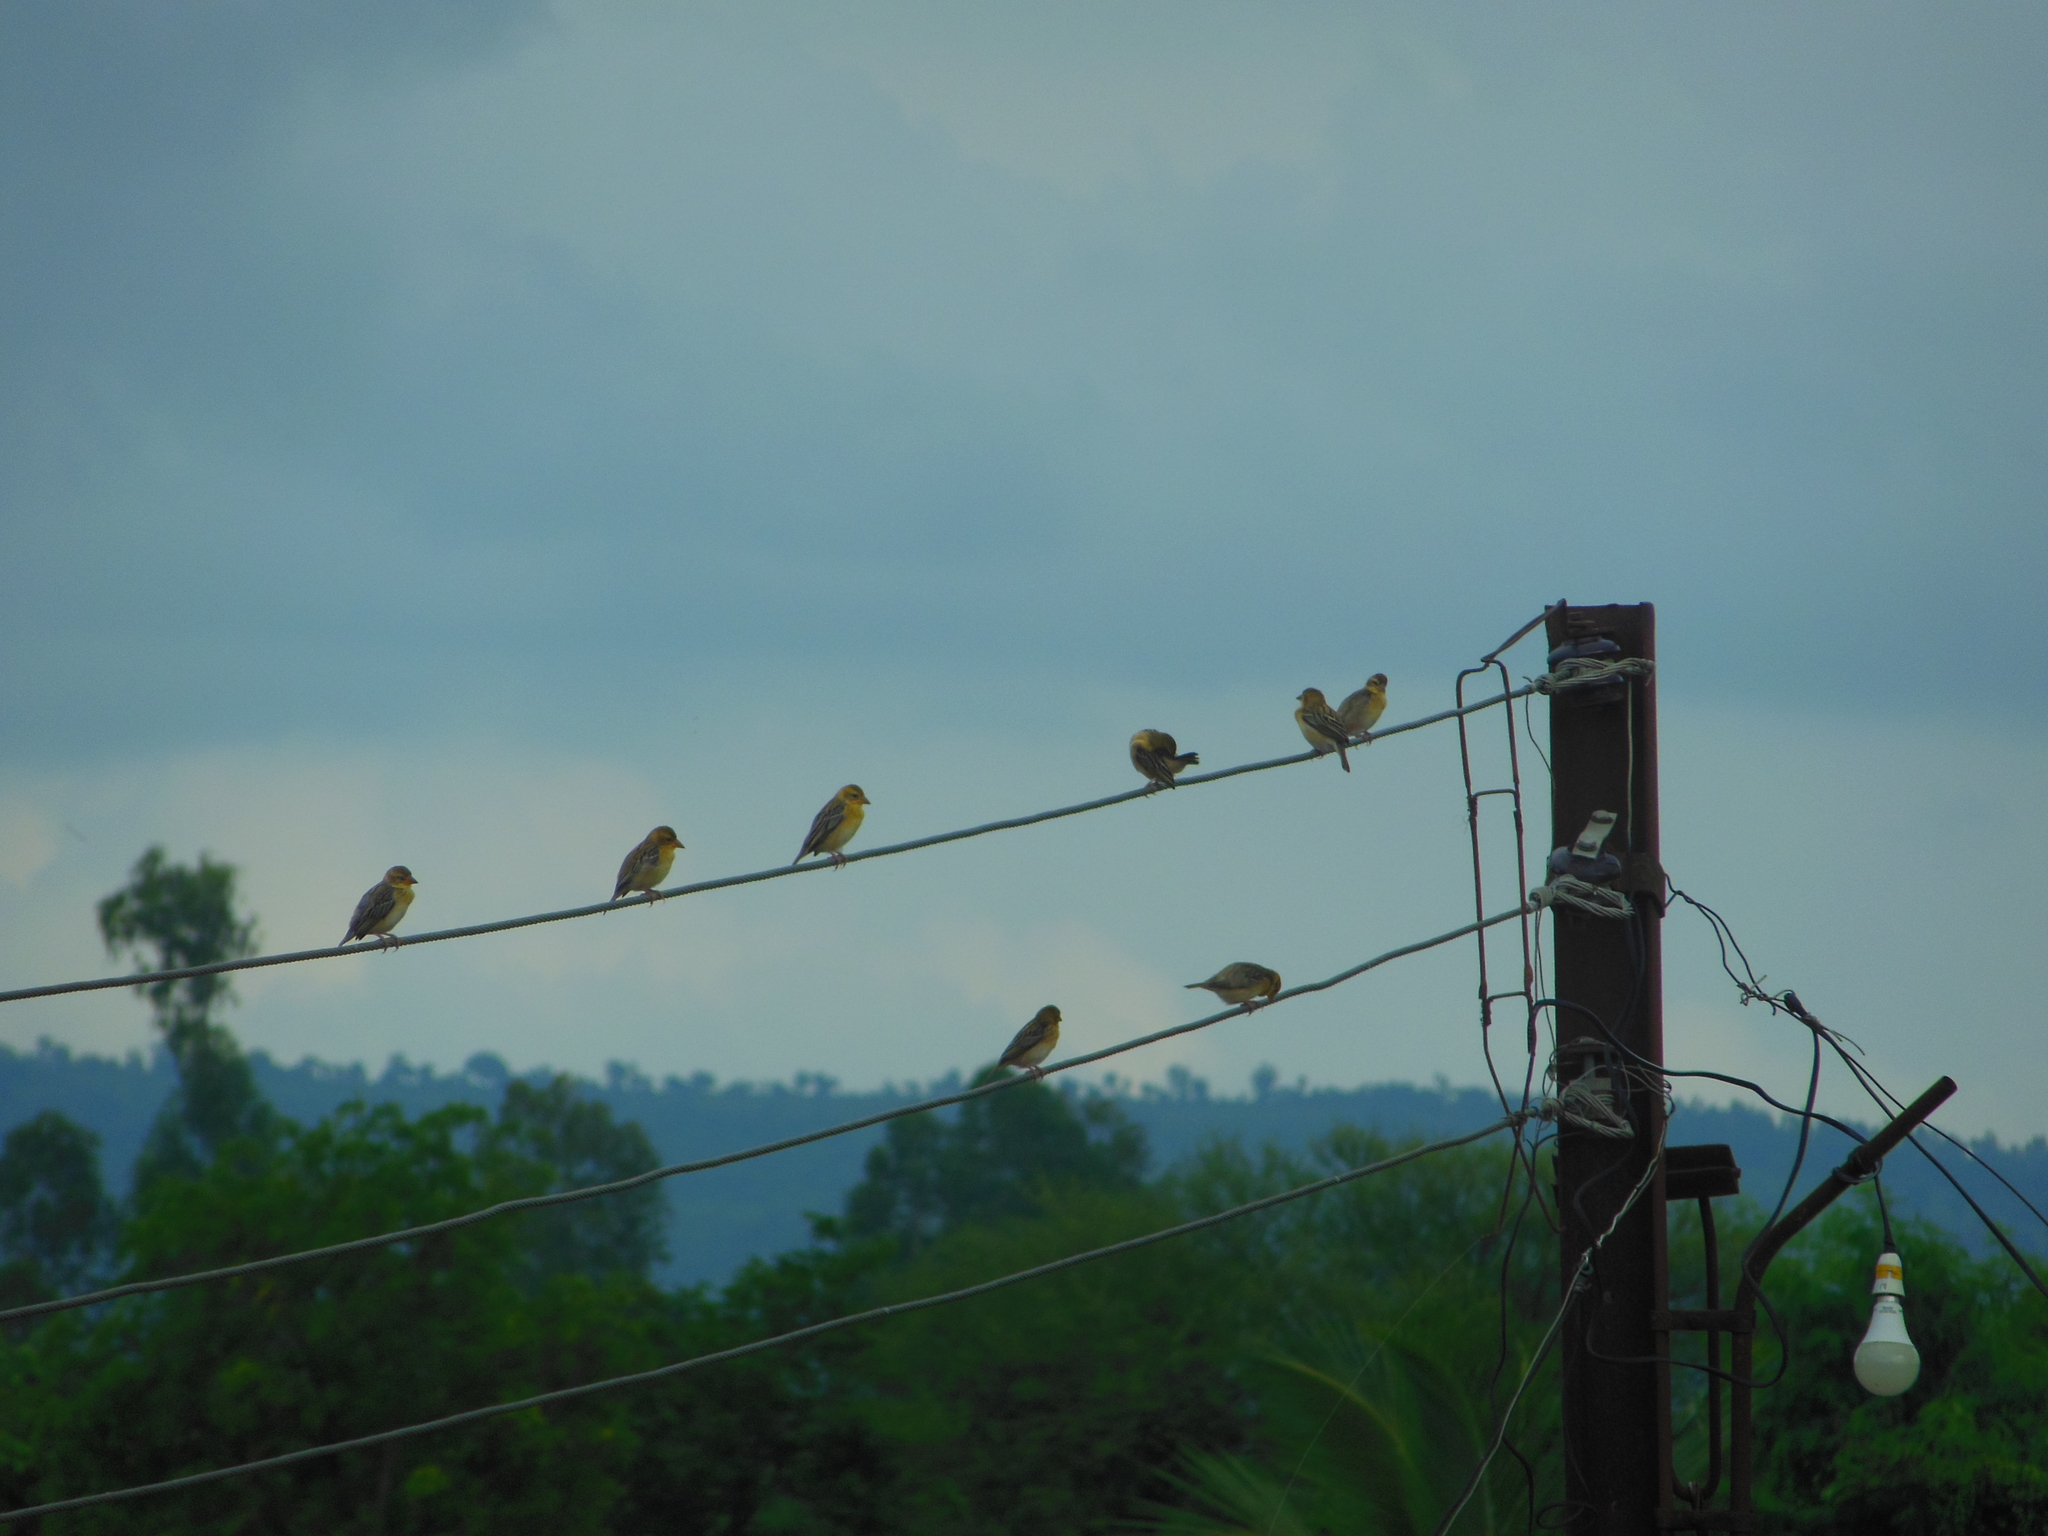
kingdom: Animalia
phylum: Chordata
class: Aves
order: Passeriformes
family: Ploceidae
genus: Ploceus
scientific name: Ploceus philippinus
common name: Baya weaver
